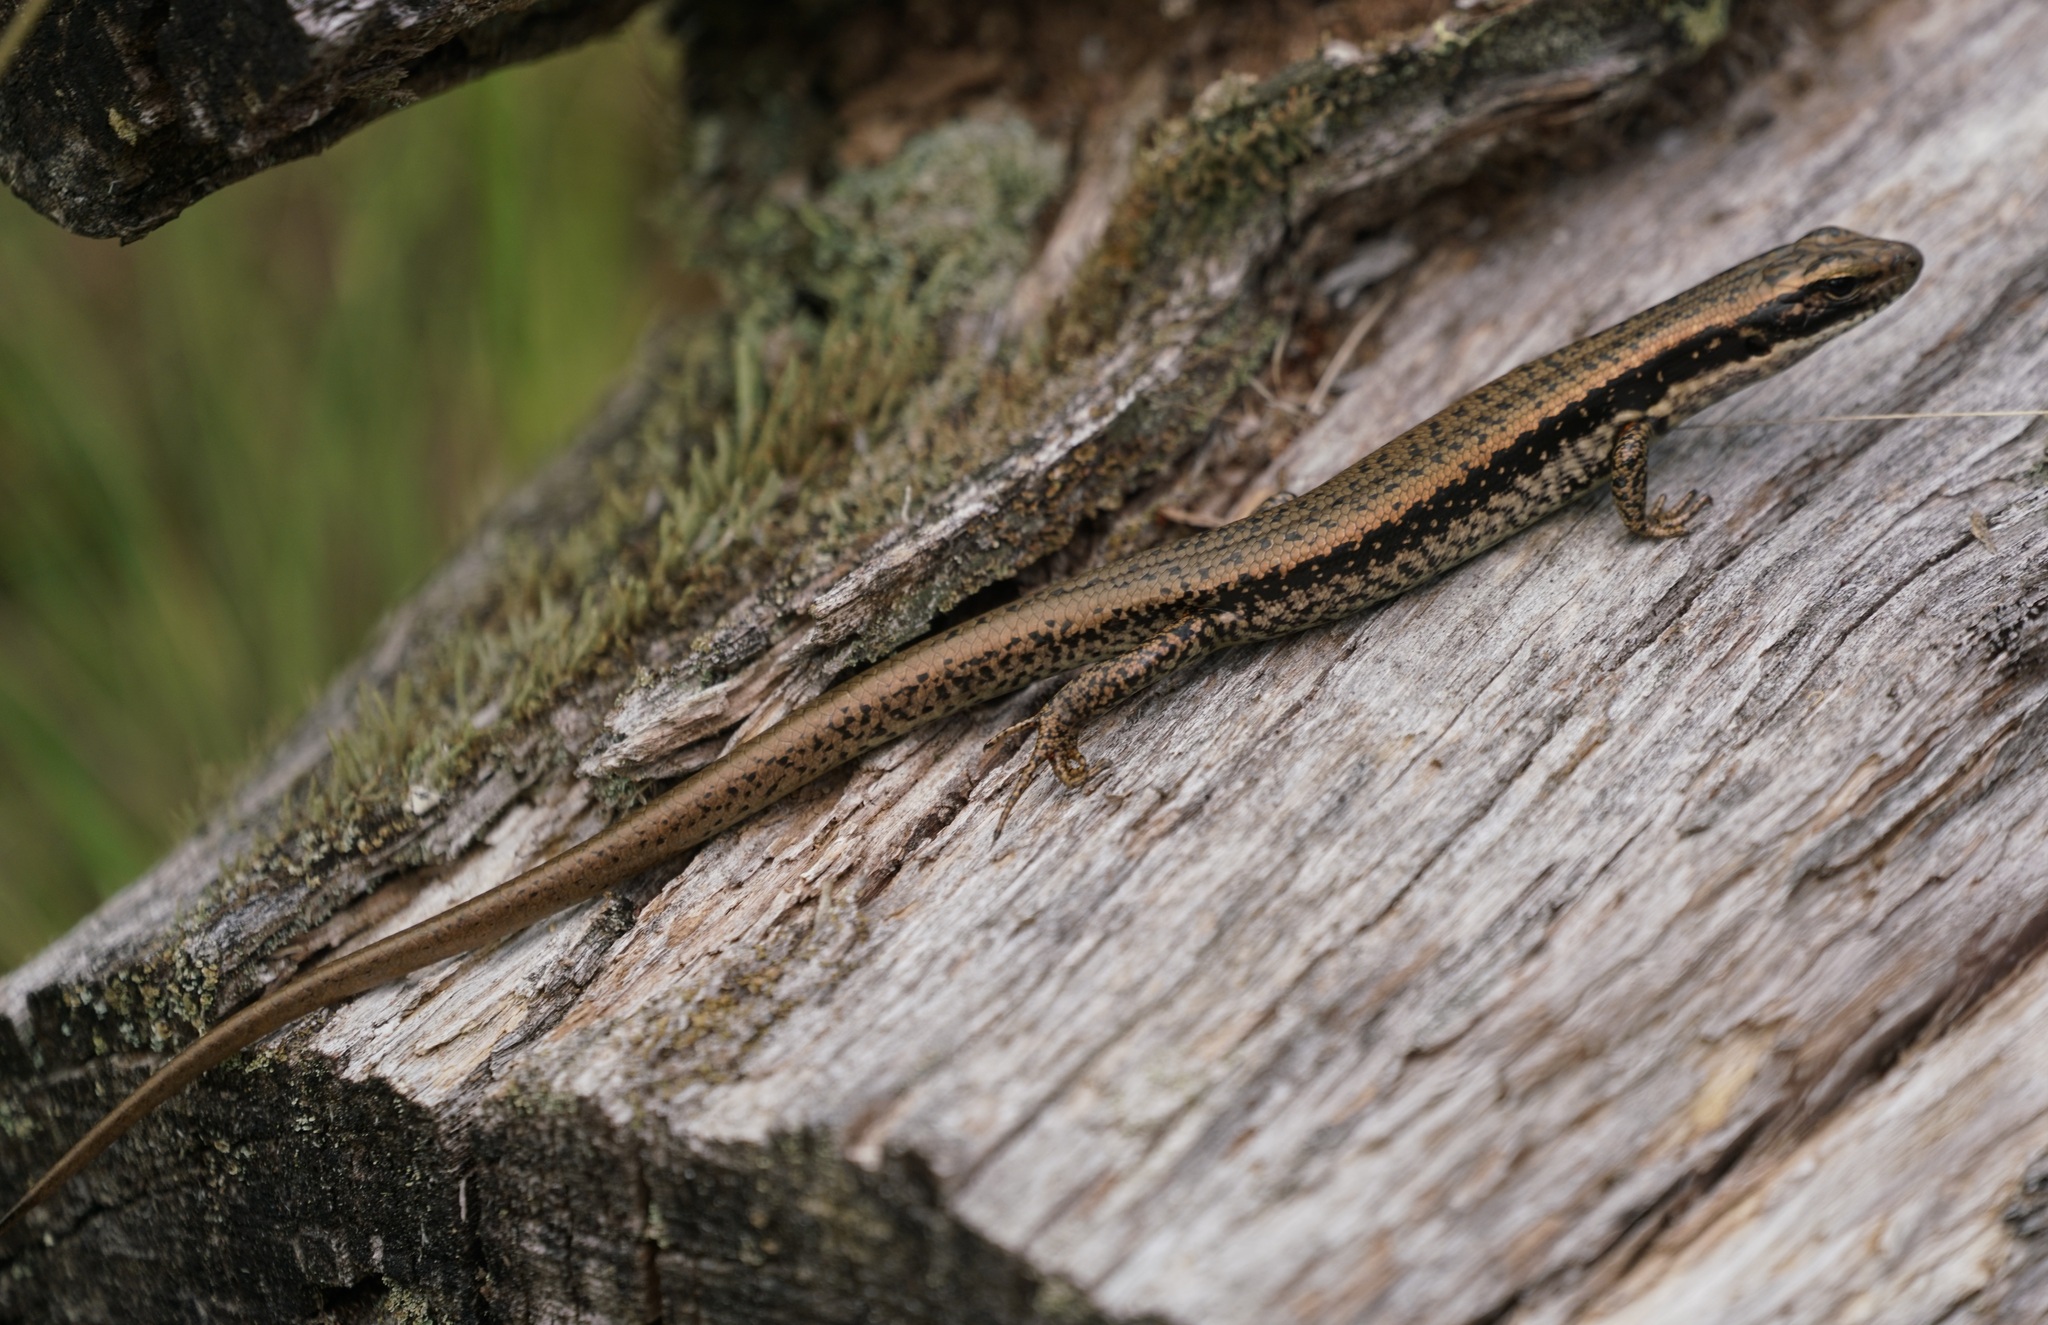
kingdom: Animalia
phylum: Chordata
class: Squamata
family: Scincidae
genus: Eulamprus
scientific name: Eulamprus heatwolei
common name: Warm-temperate water-skink
